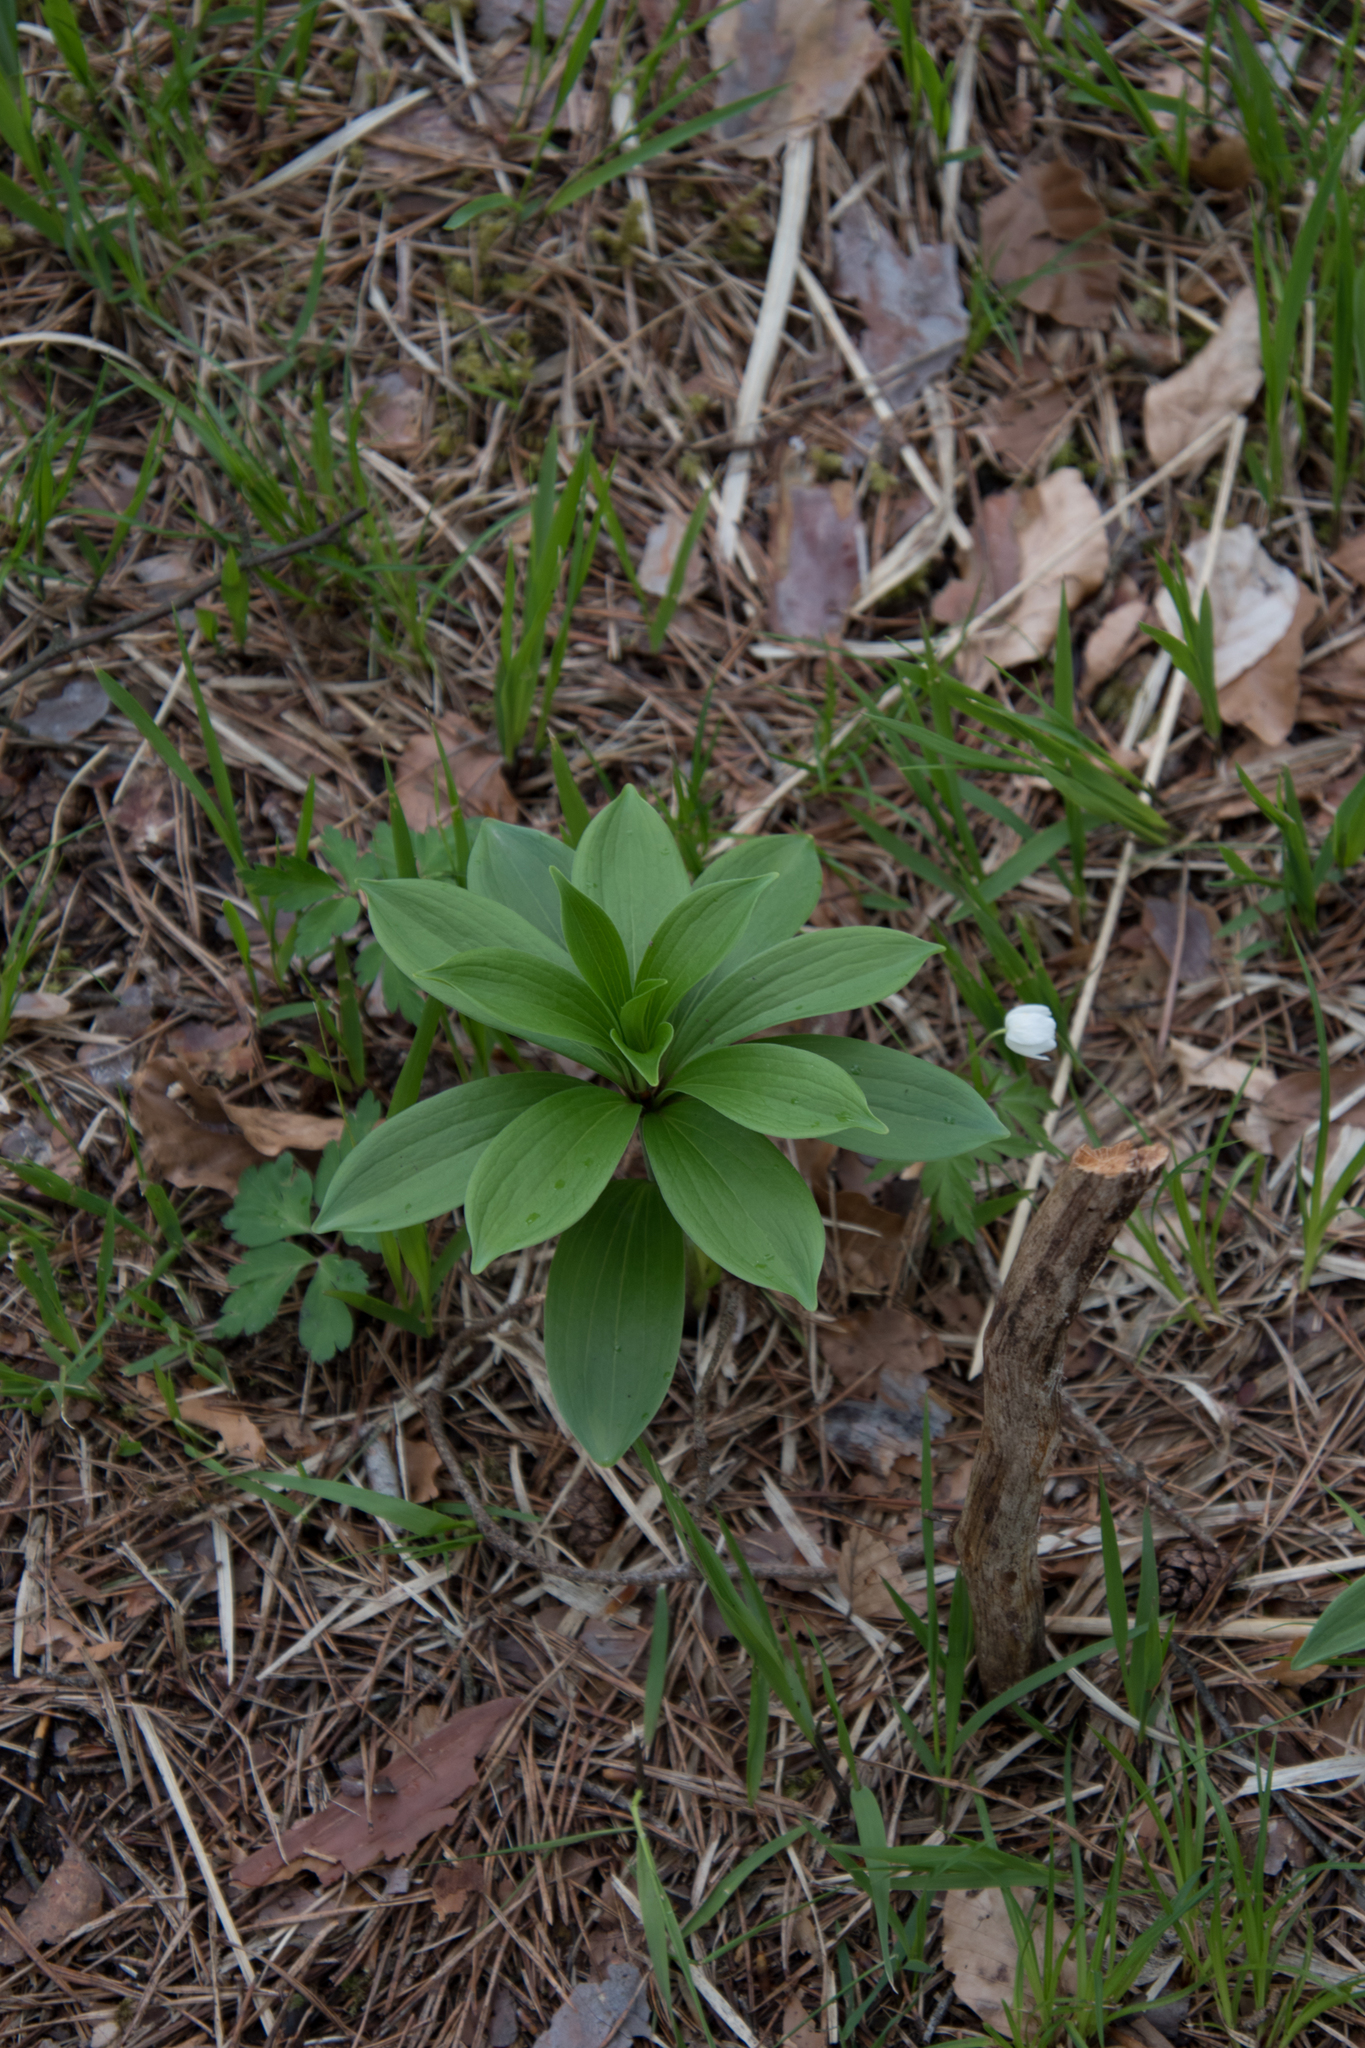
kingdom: Plantae
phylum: Tracheophyta
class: Liliopsida
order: Liliales
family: Liliaceae
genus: Lilium
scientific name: Lilium martagon
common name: Martagon lily
